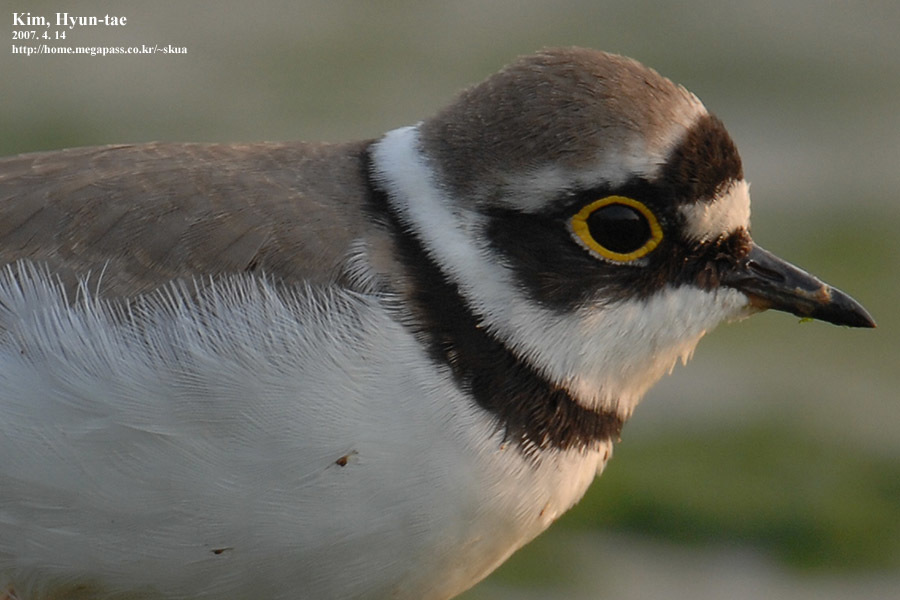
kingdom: Animalia
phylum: Chordata
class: Aves
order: Charadriiformes
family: Charadriidae
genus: Charadrius
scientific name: Charadrius dubius
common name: Little ringed plover
